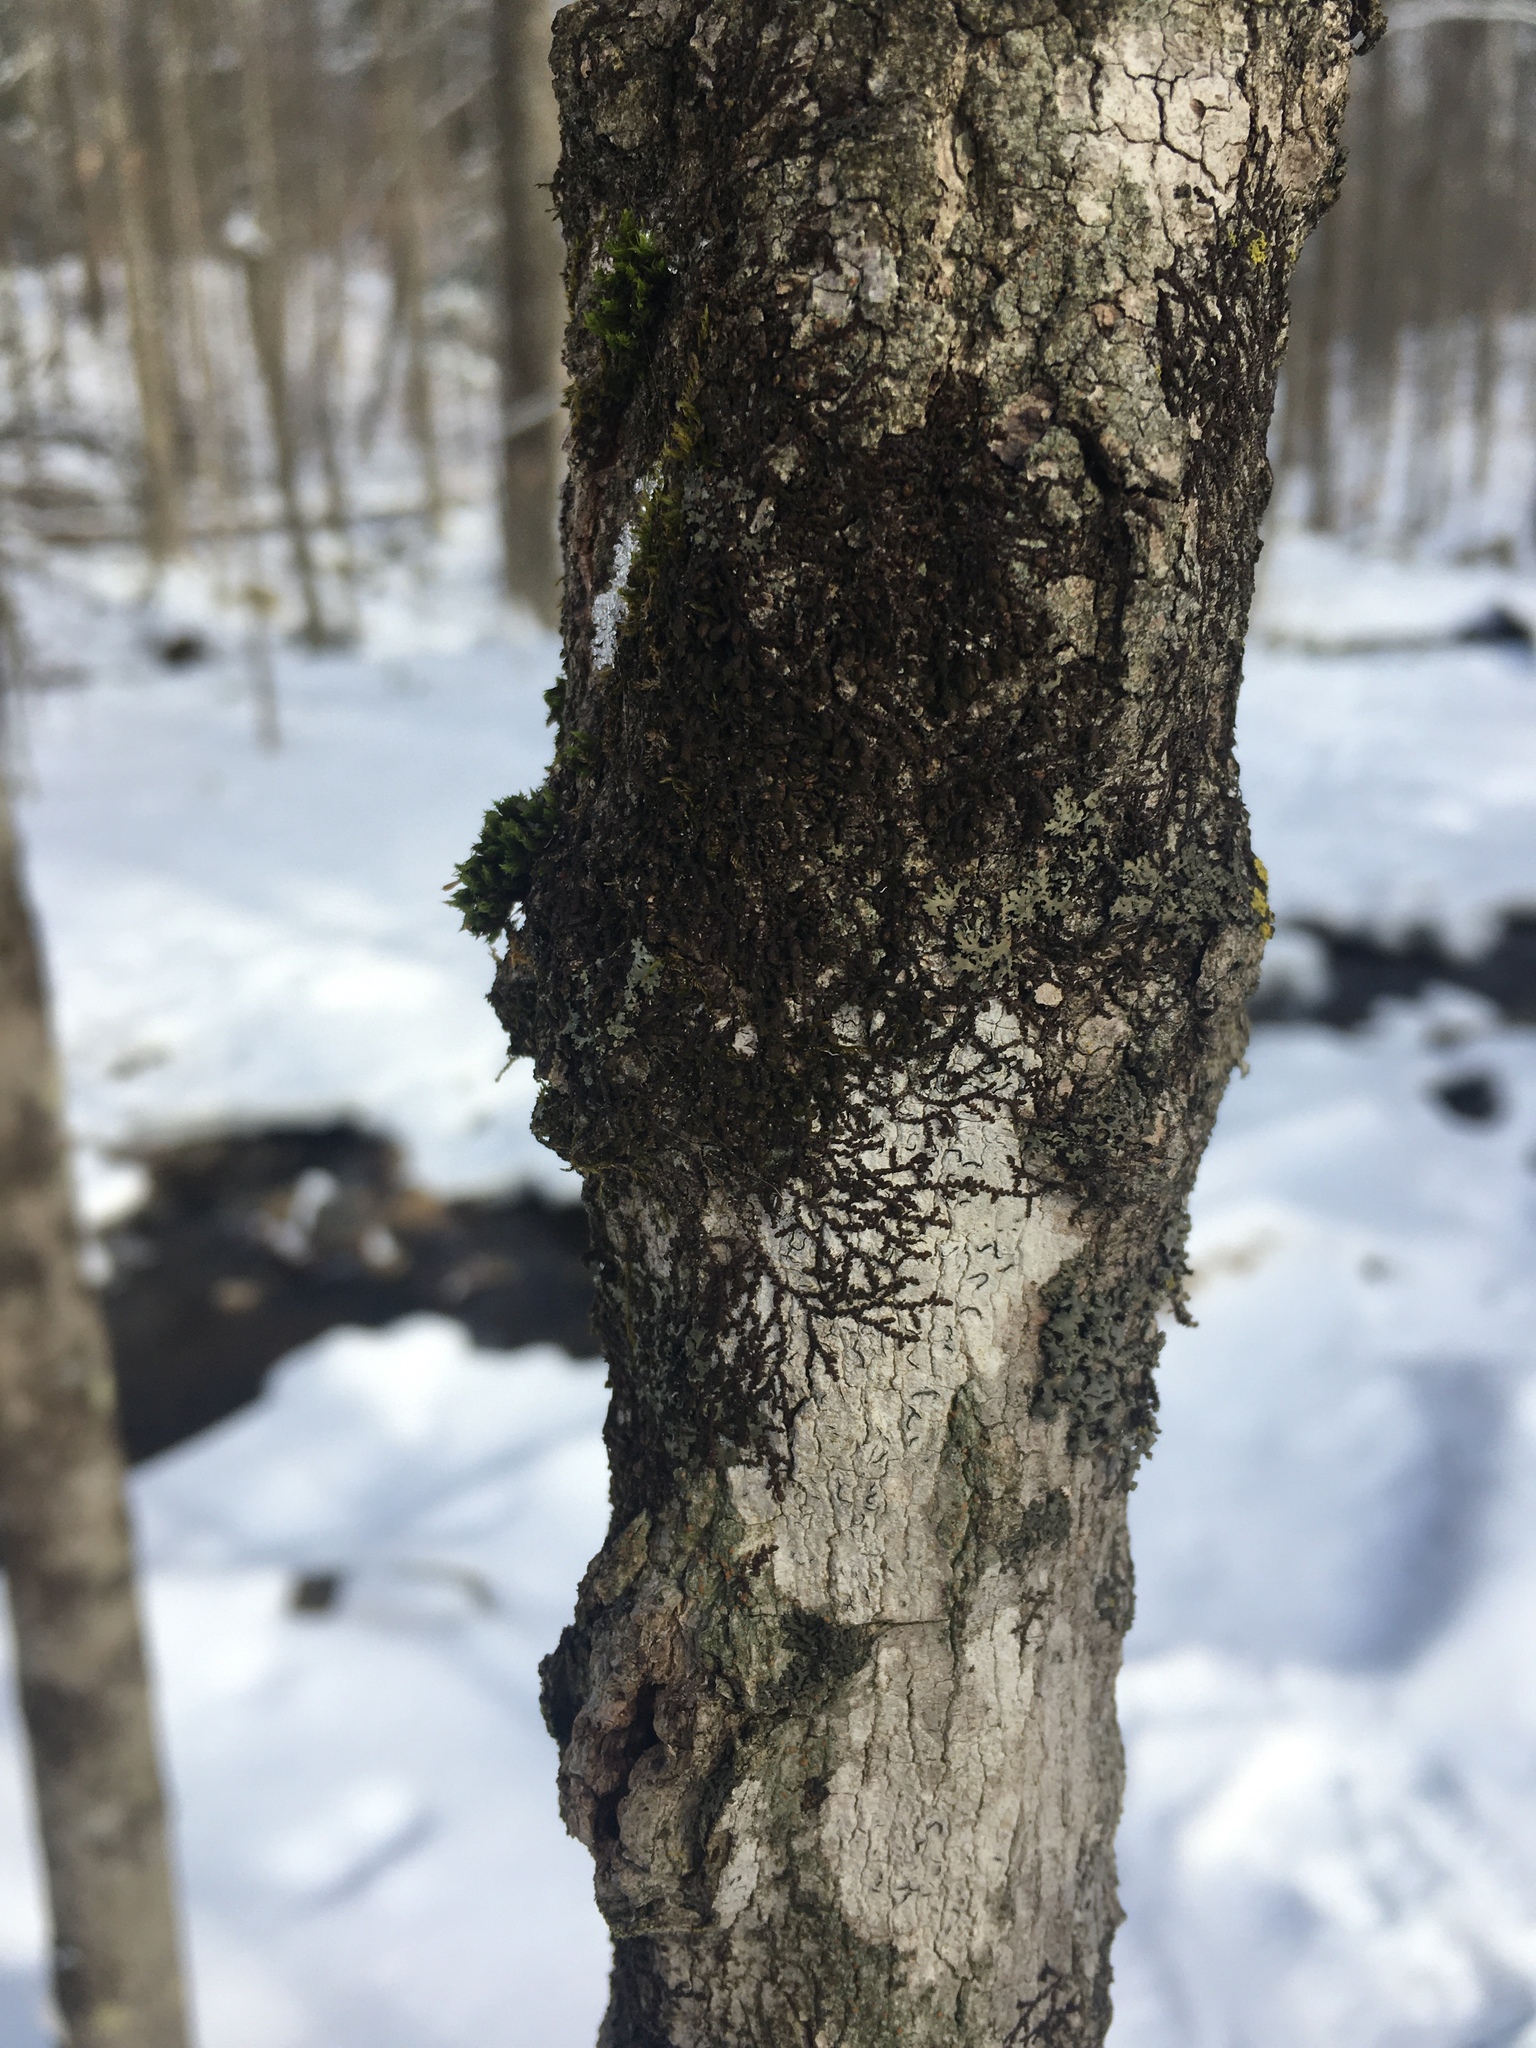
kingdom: Plantae
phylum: Marchantiophyta
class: Jungermanniopsida
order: Porellales
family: Frullaniaceae
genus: Frullania
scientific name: Frullania eboracensis
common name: New york scalewort
